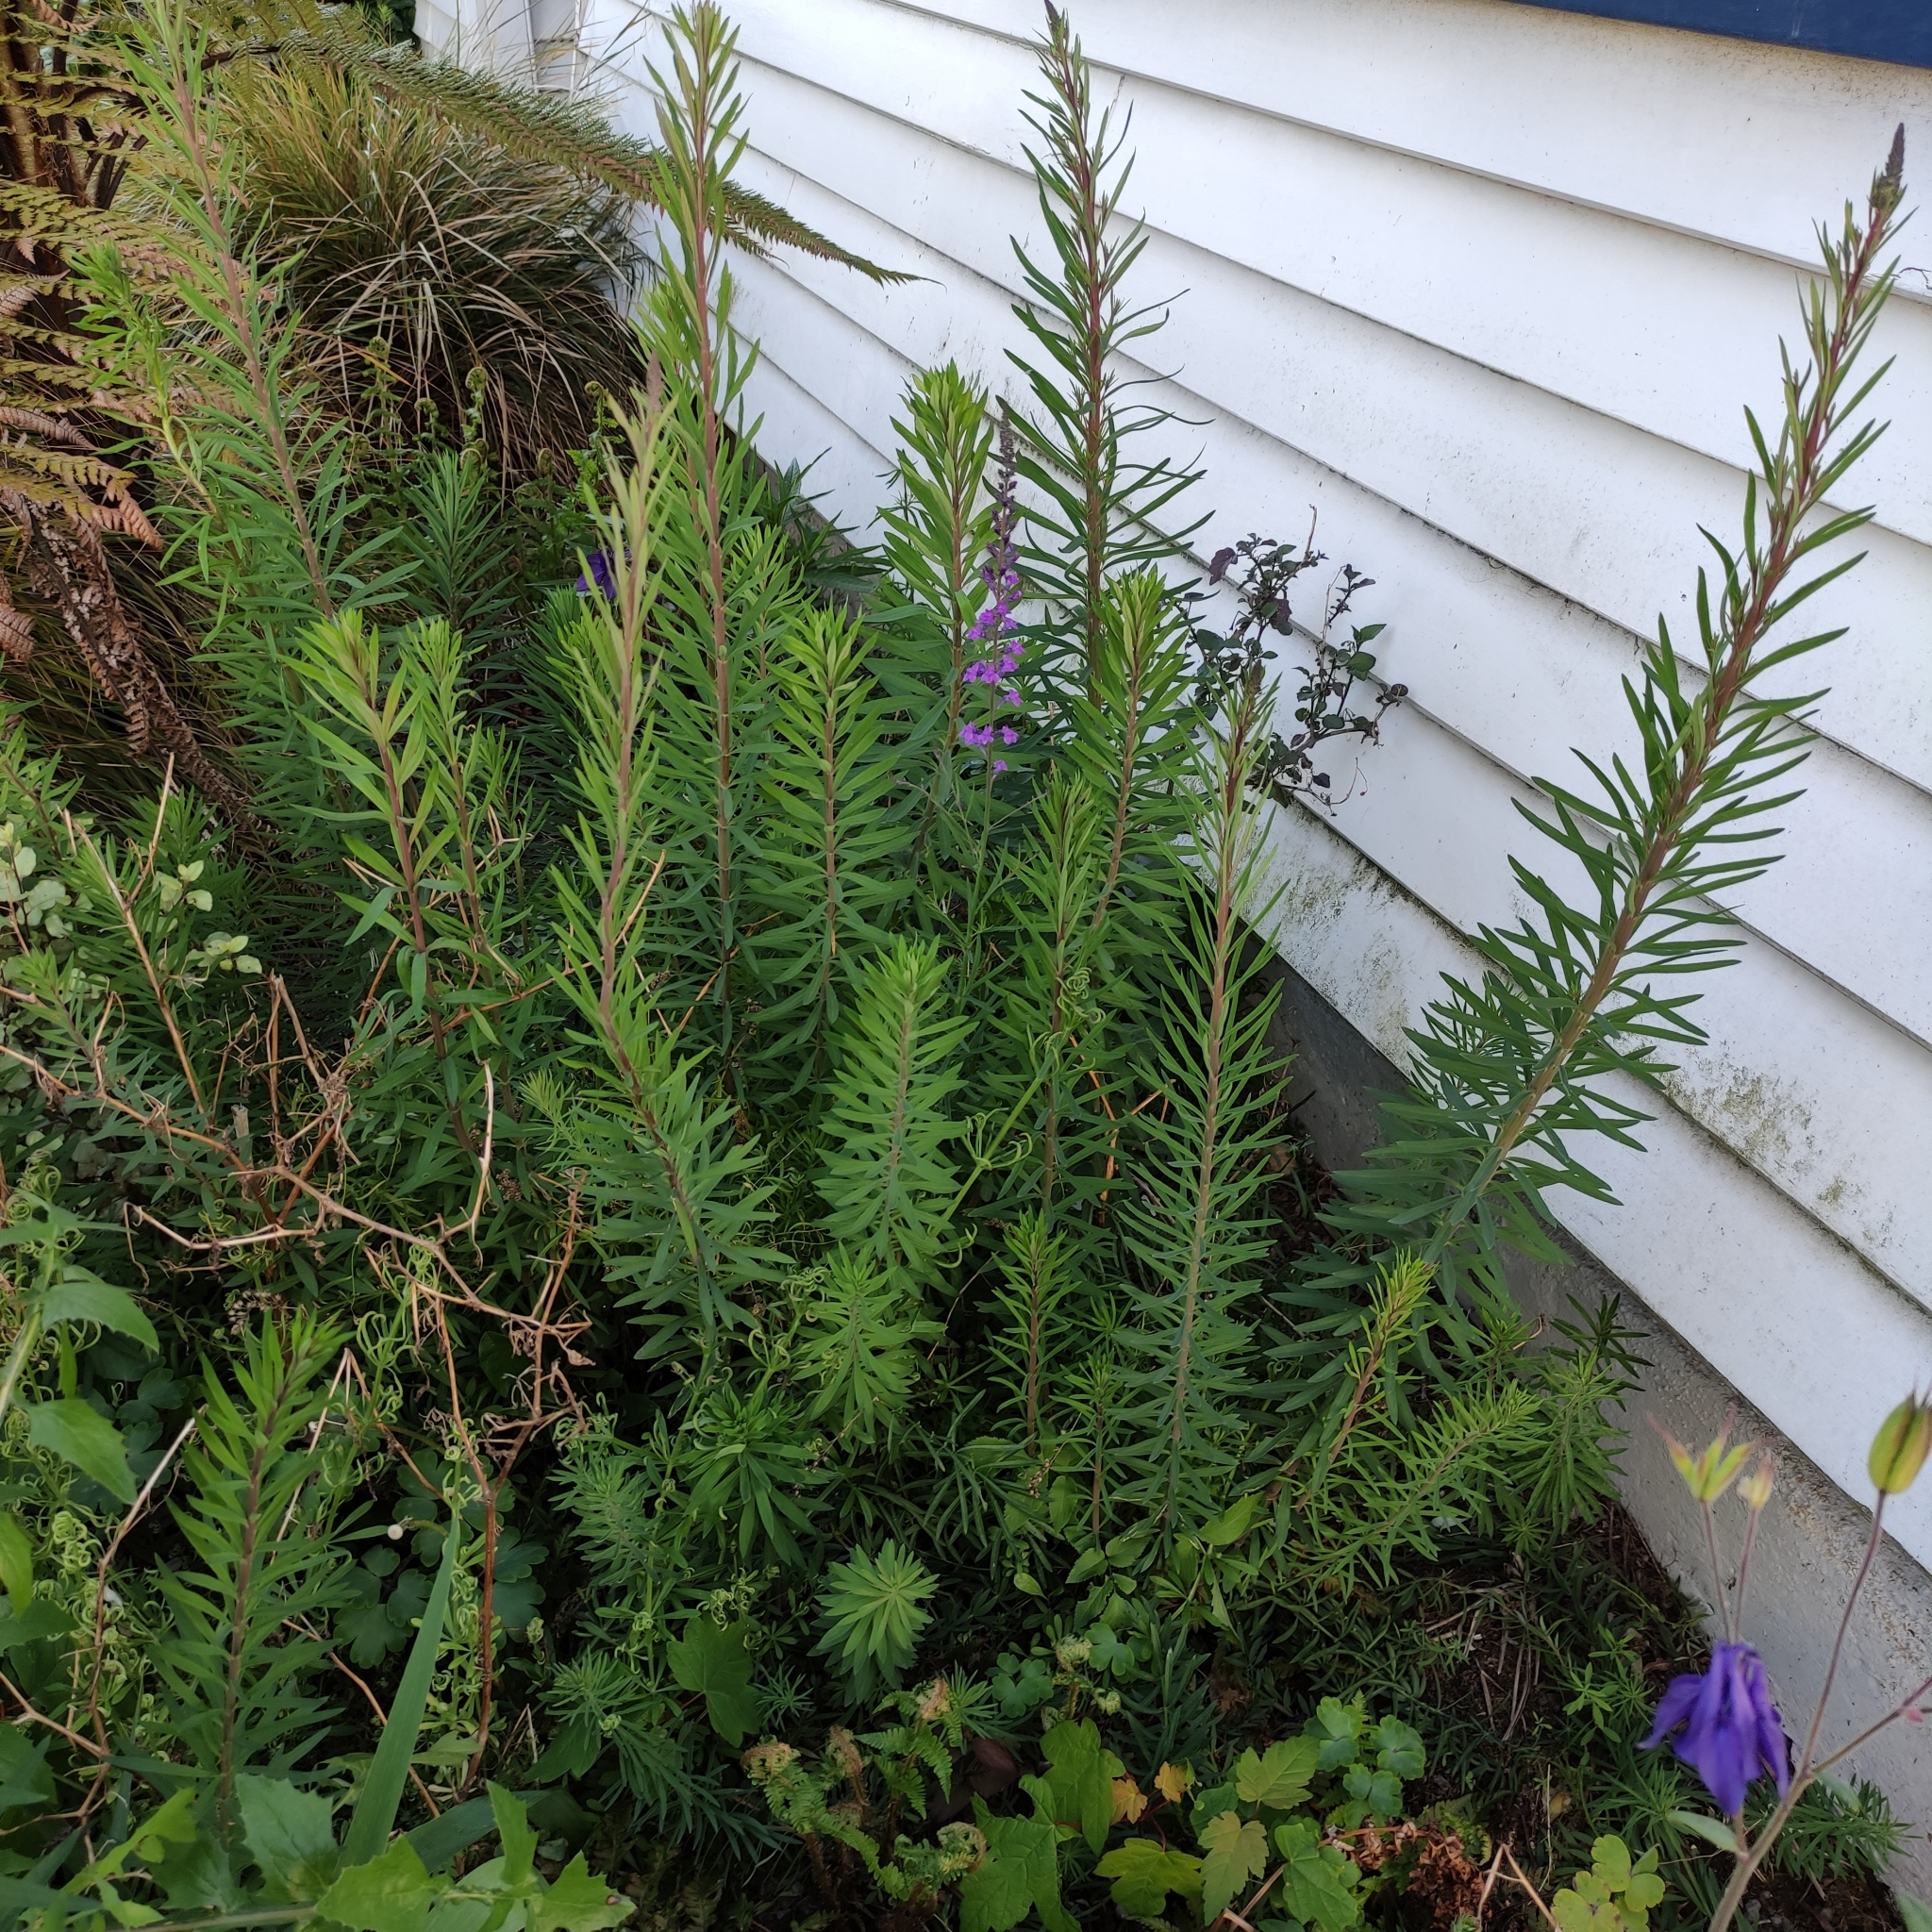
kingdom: Plantae
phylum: Tracheophyta
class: Magnoliopsida
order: Lamiales
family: Plantaginaceae
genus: Linaria
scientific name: Linaria purpurea
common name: Purple toadflax
